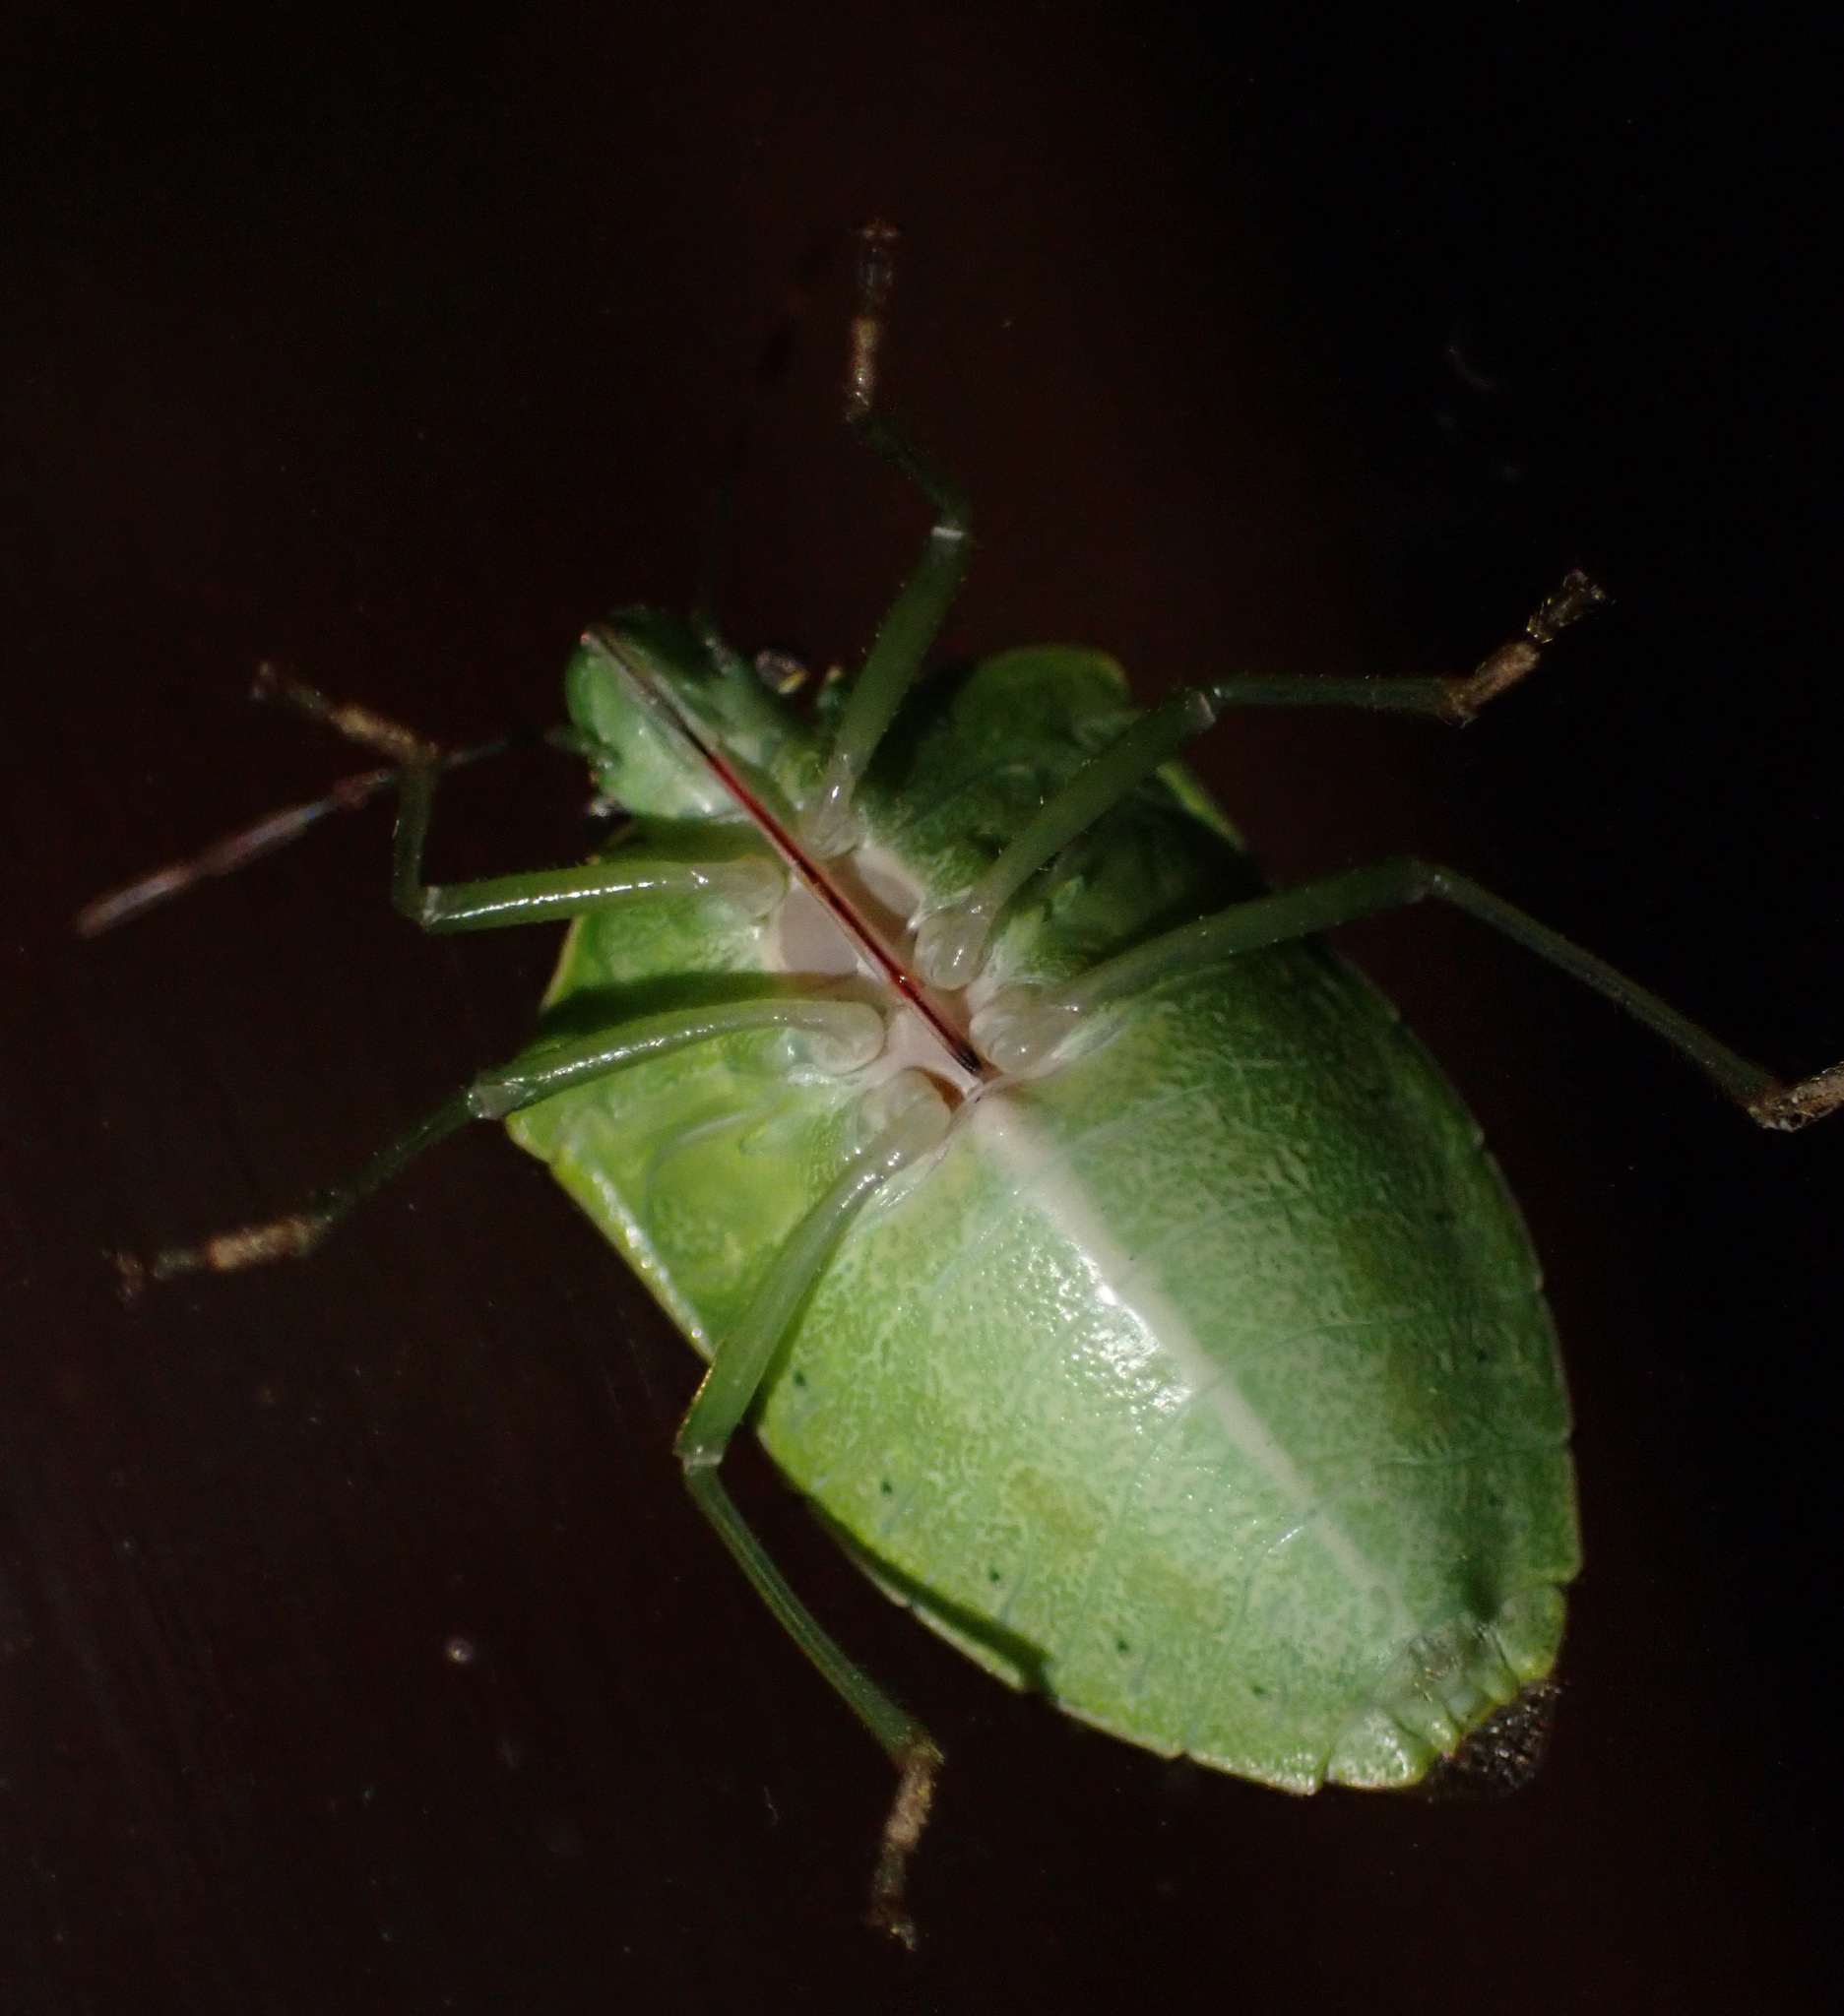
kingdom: Animalia
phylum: Arthropoda
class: Insecta
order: Hemiptera
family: Pentatomidae
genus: Nezara
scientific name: Nezara viridula
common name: Southern green stink bug
